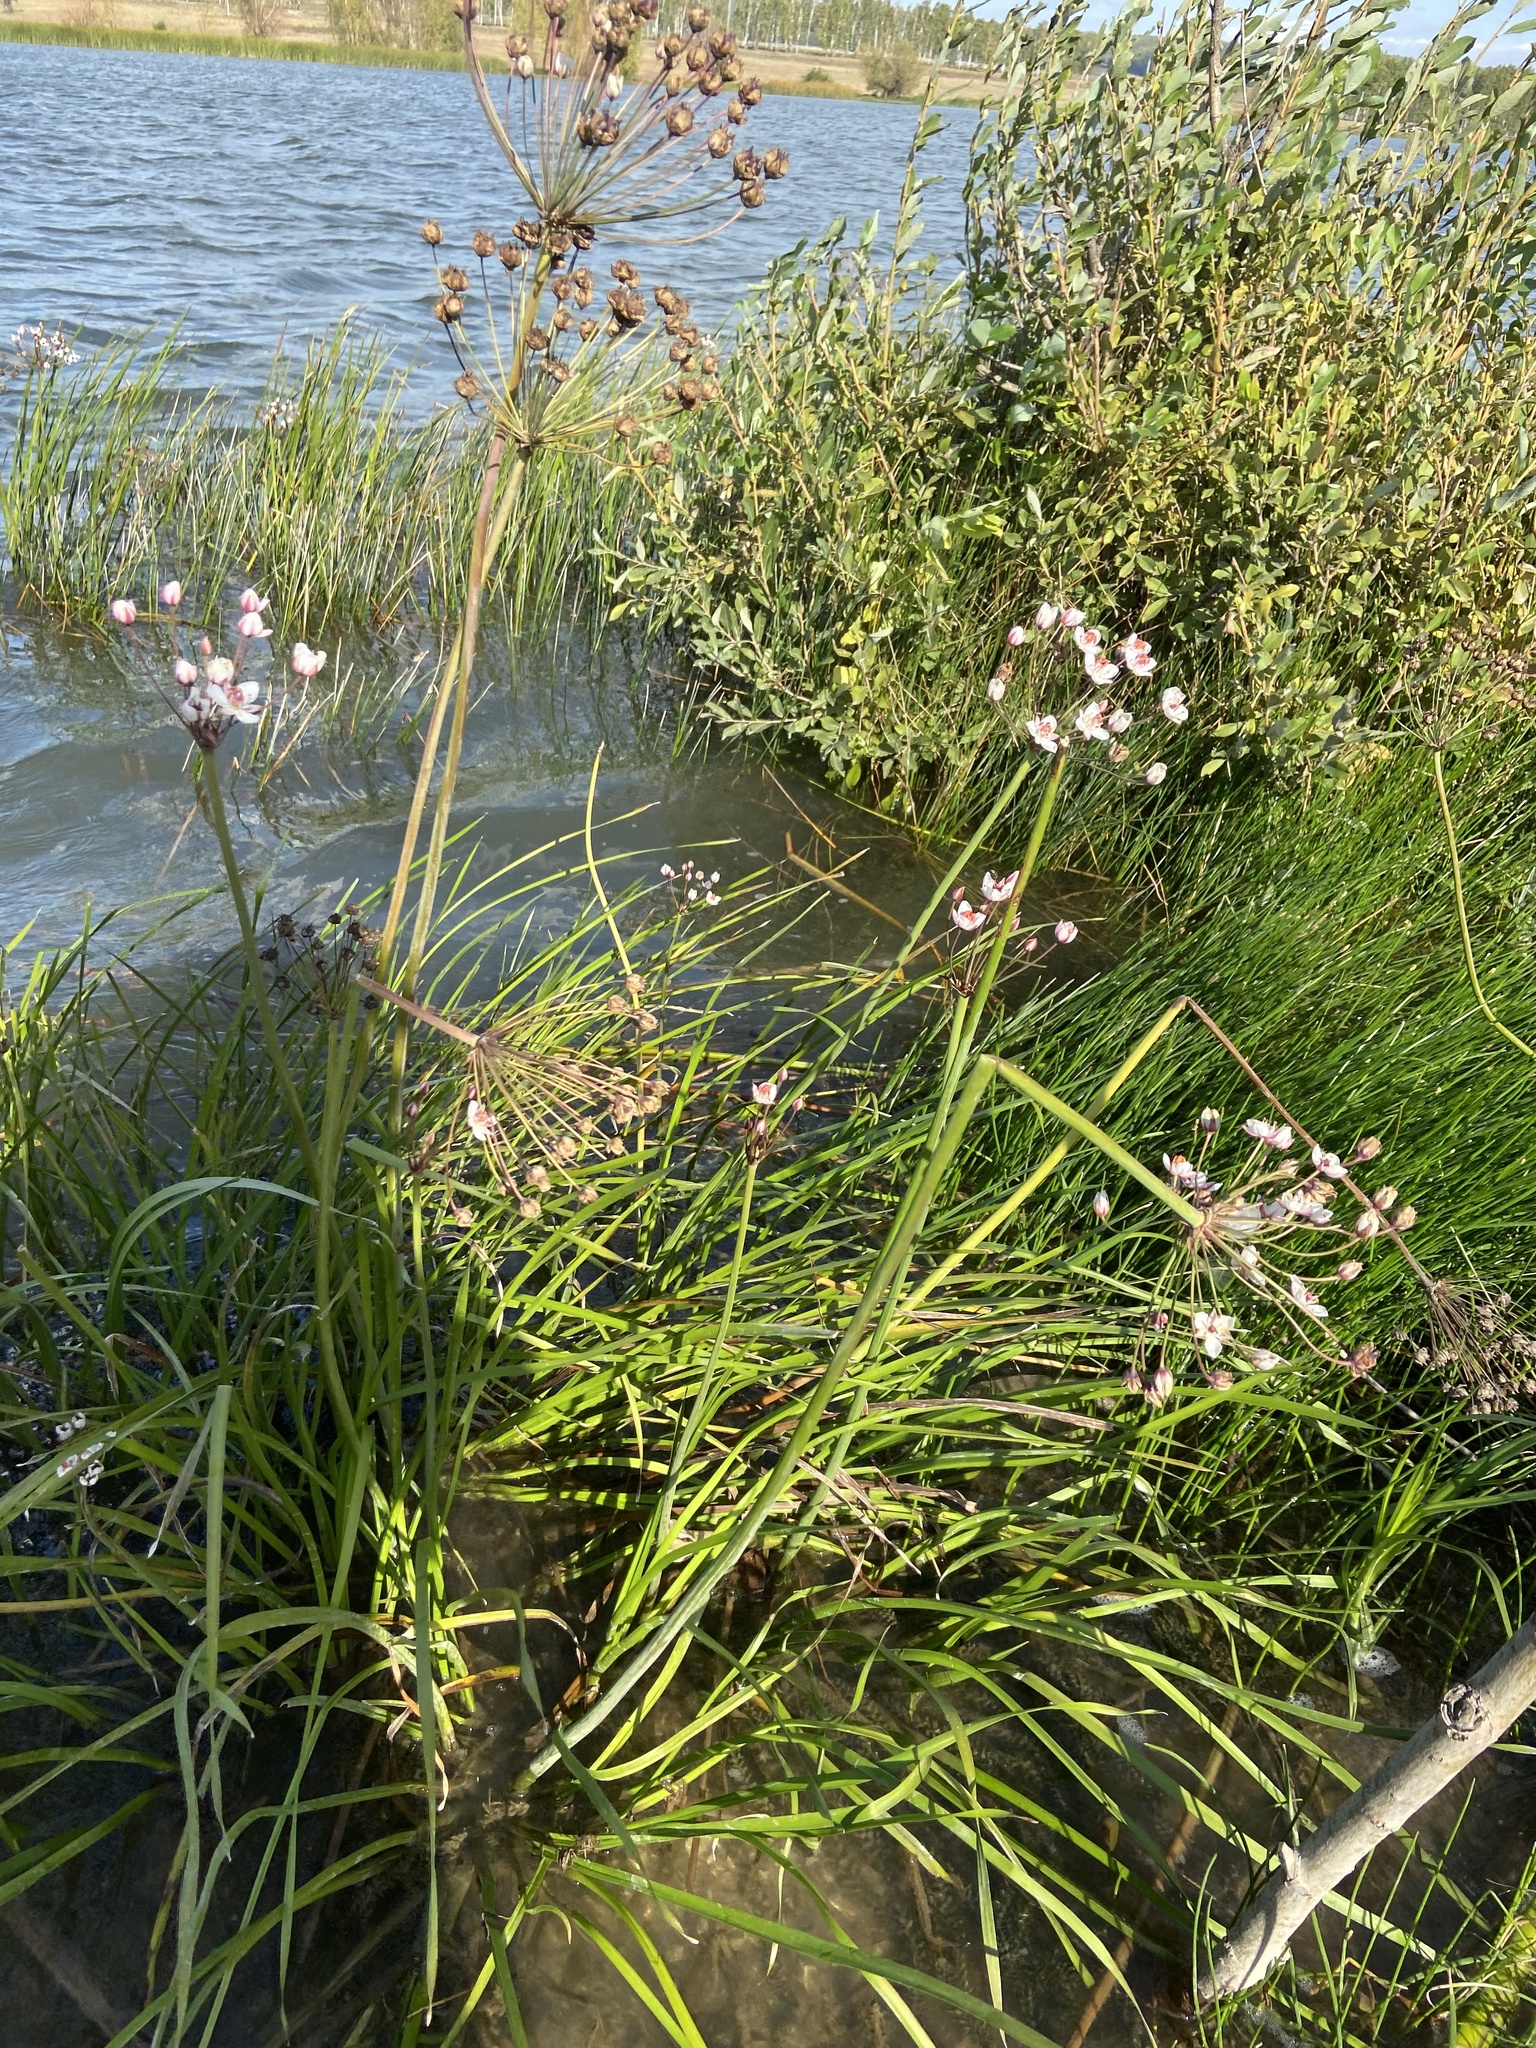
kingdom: Plantae
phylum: Tracheophyta
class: Liliopsida
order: Alismatales
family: Butomaceae
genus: Butomus
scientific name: Butomus umbellatus
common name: Flowering-rush
